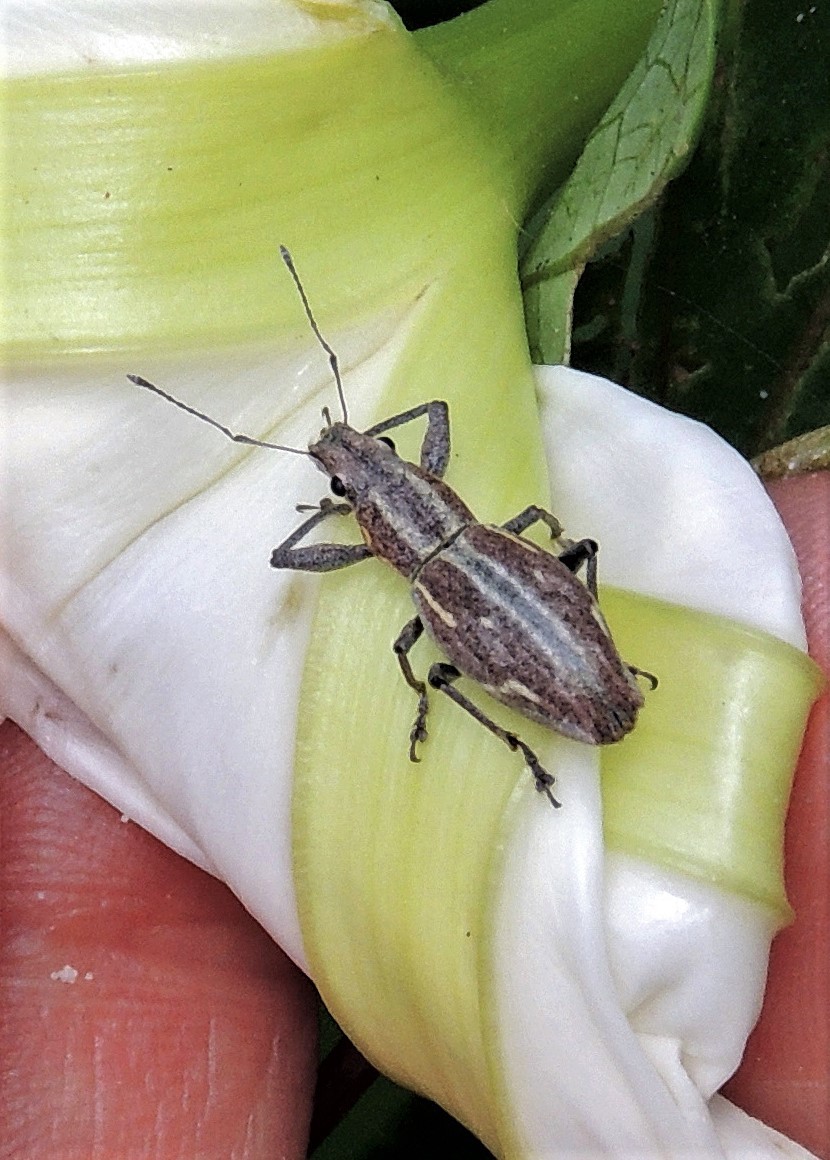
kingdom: Animalia
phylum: Arthropoda
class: Insecta
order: Coleoptera
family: Curculionidae
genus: Naupactus
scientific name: Naupactus xanthographus
